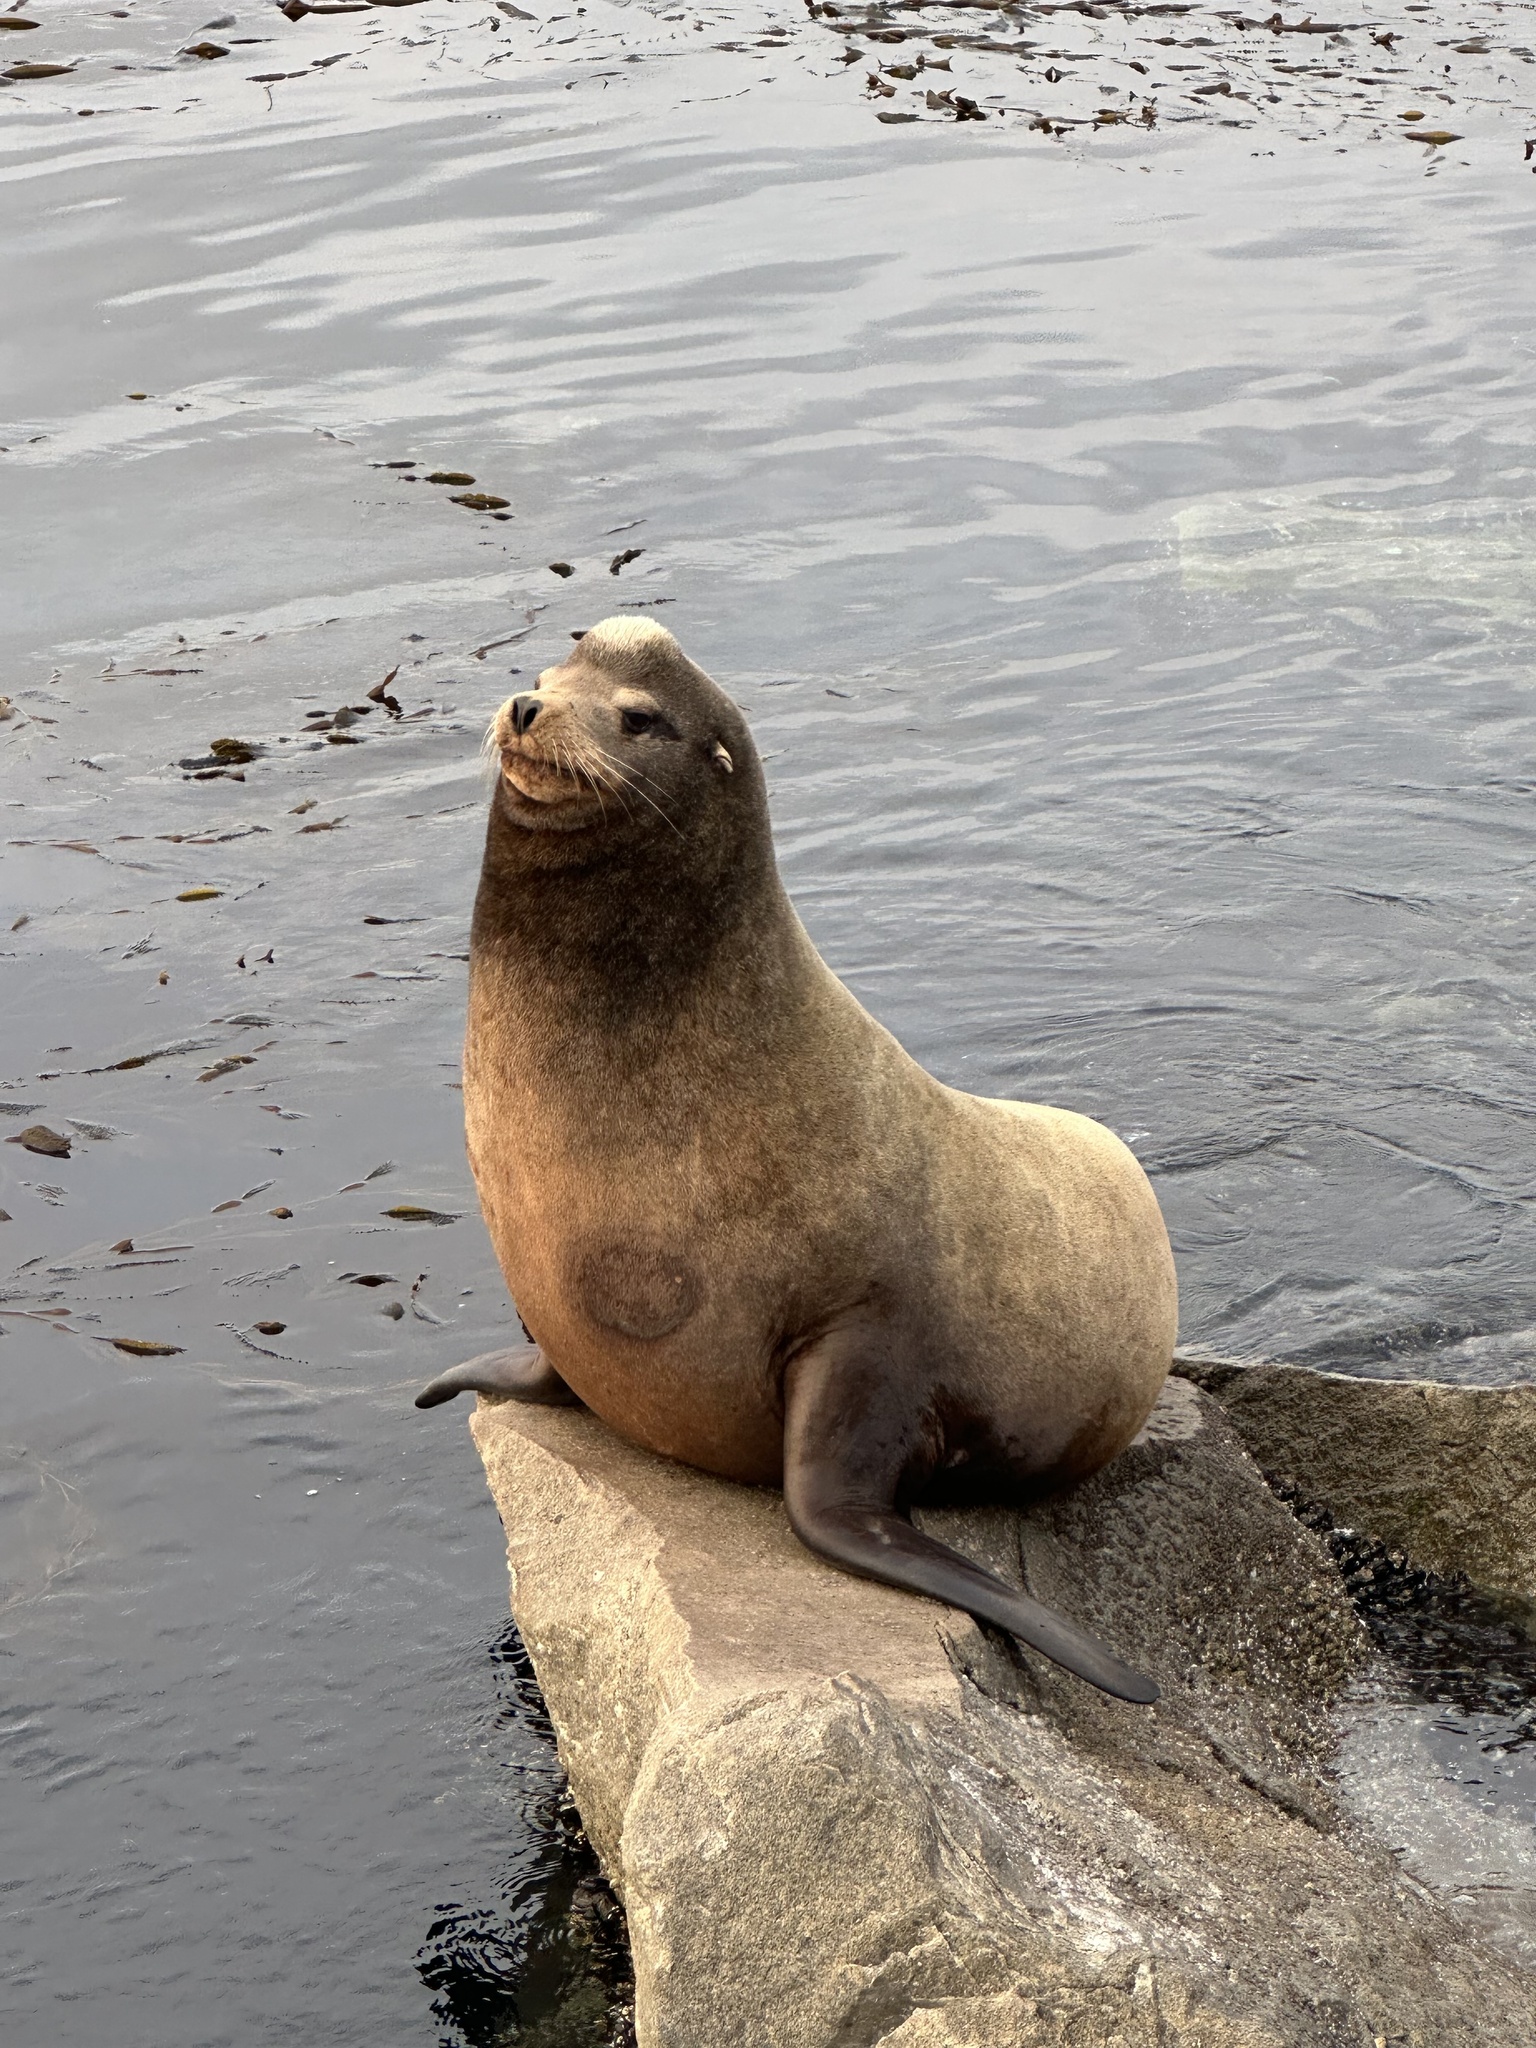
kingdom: Animalia
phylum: Chordata
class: Mammalia
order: Carnivora
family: Otariidae
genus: Zalophus
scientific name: Zalophus californianus
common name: California sea lion
